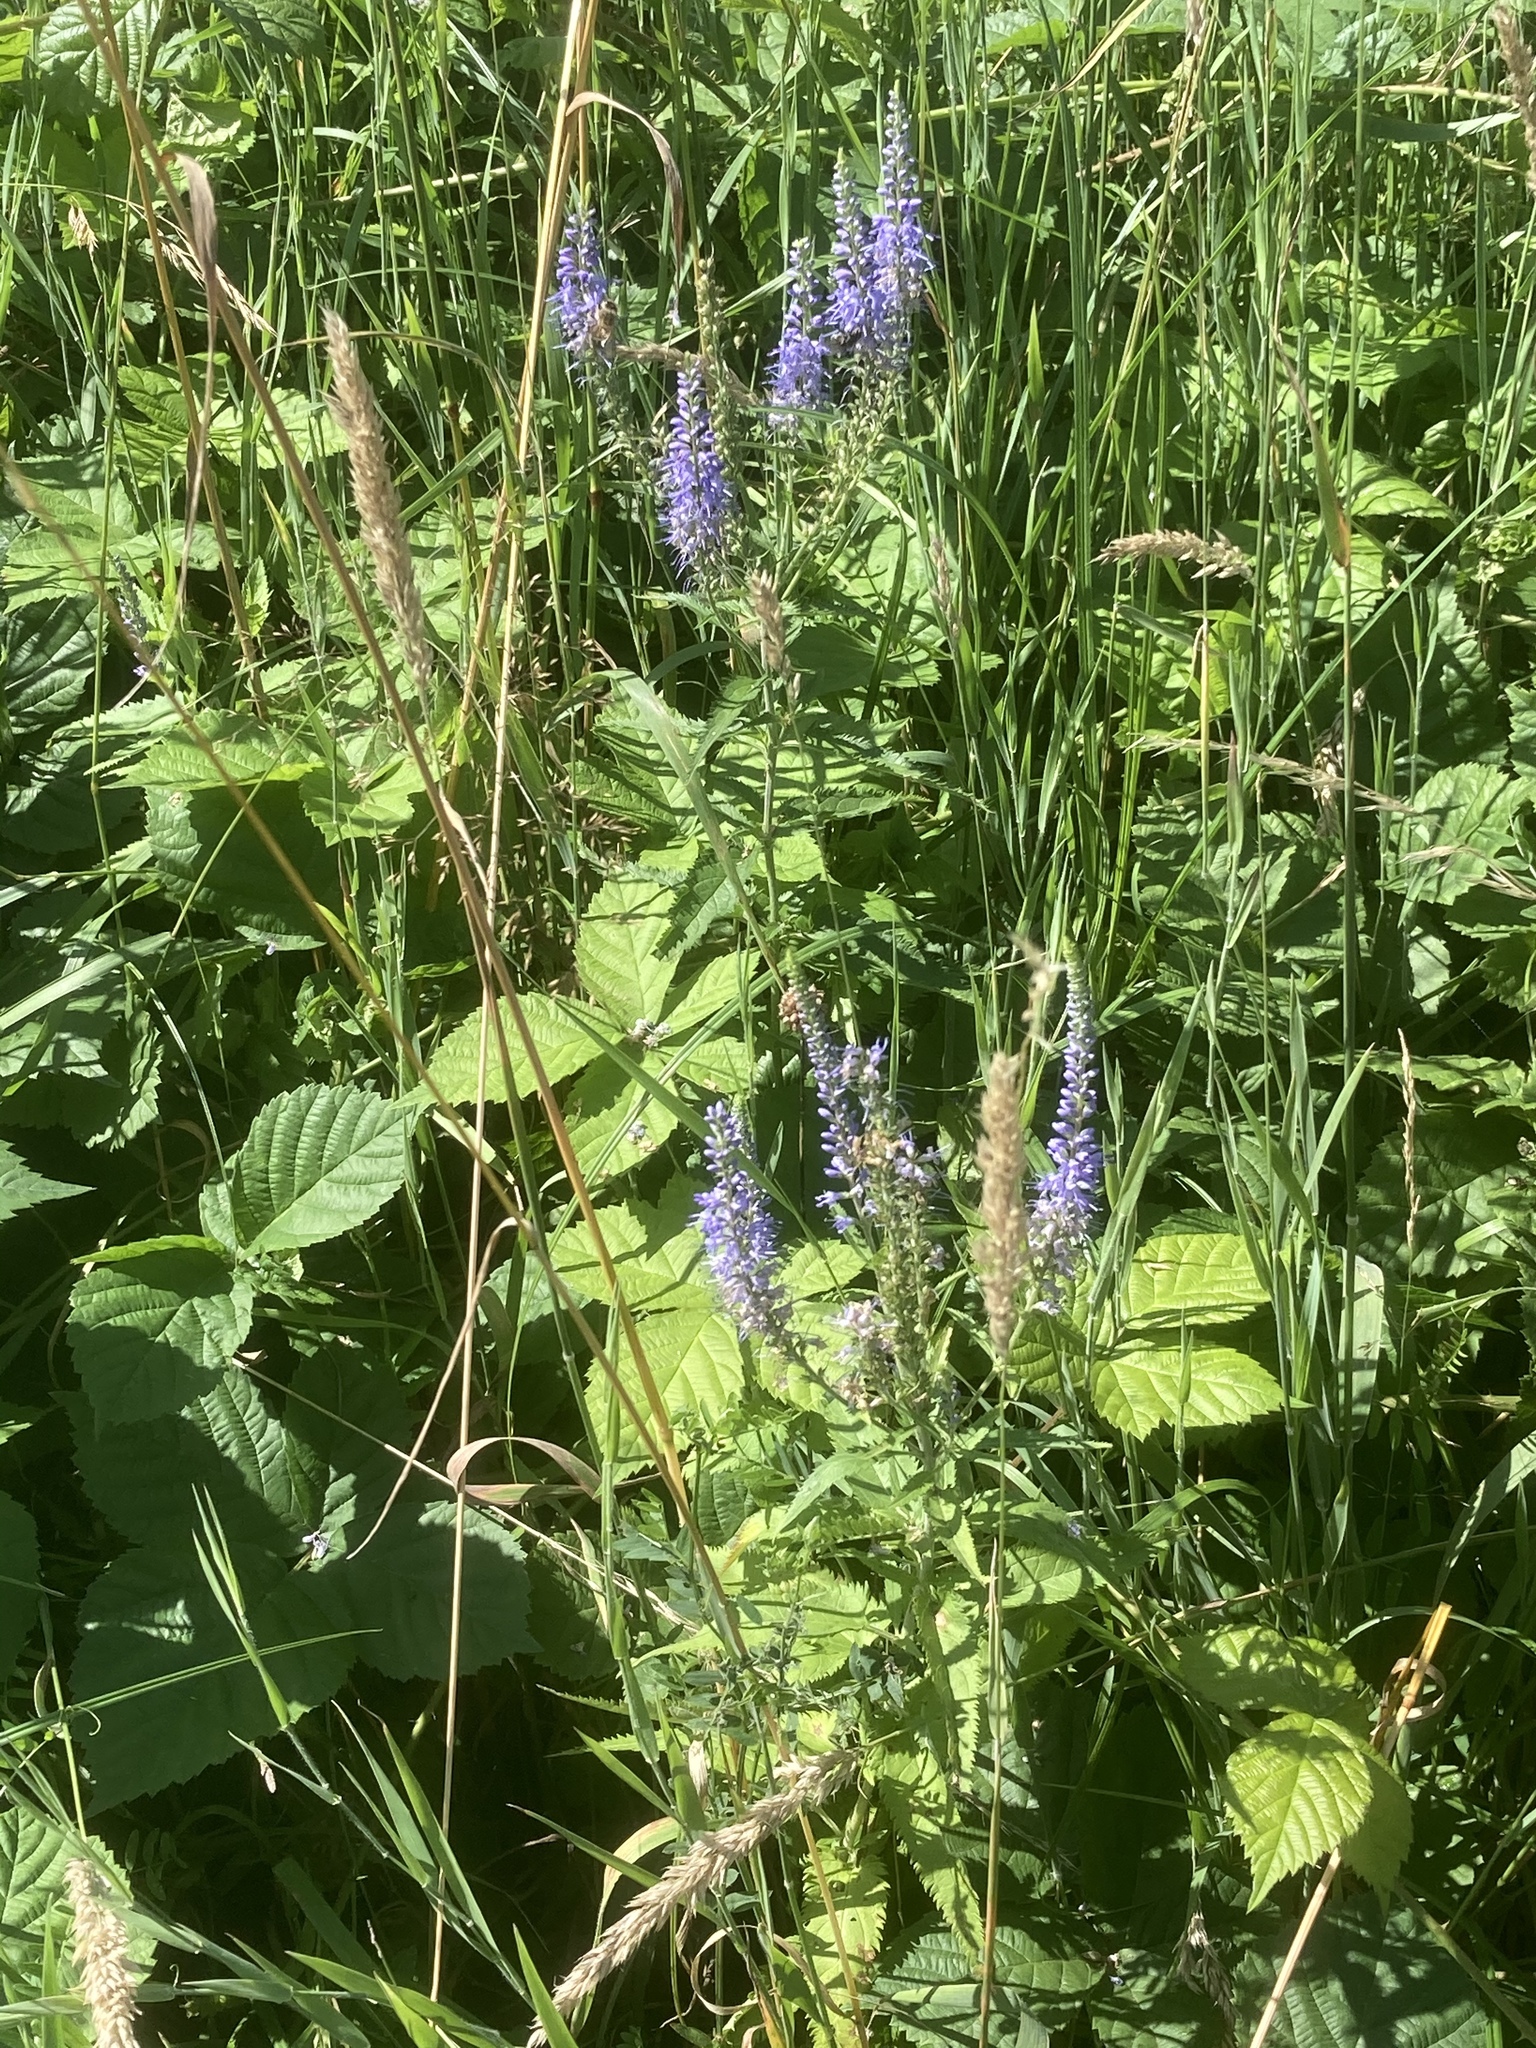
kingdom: Plantae
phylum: Tracheophyta
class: Magnoliopsida
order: Lamiales
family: Plantaginaceae
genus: Veronica
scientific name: Veronica longifolia
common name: Garden speedwell
